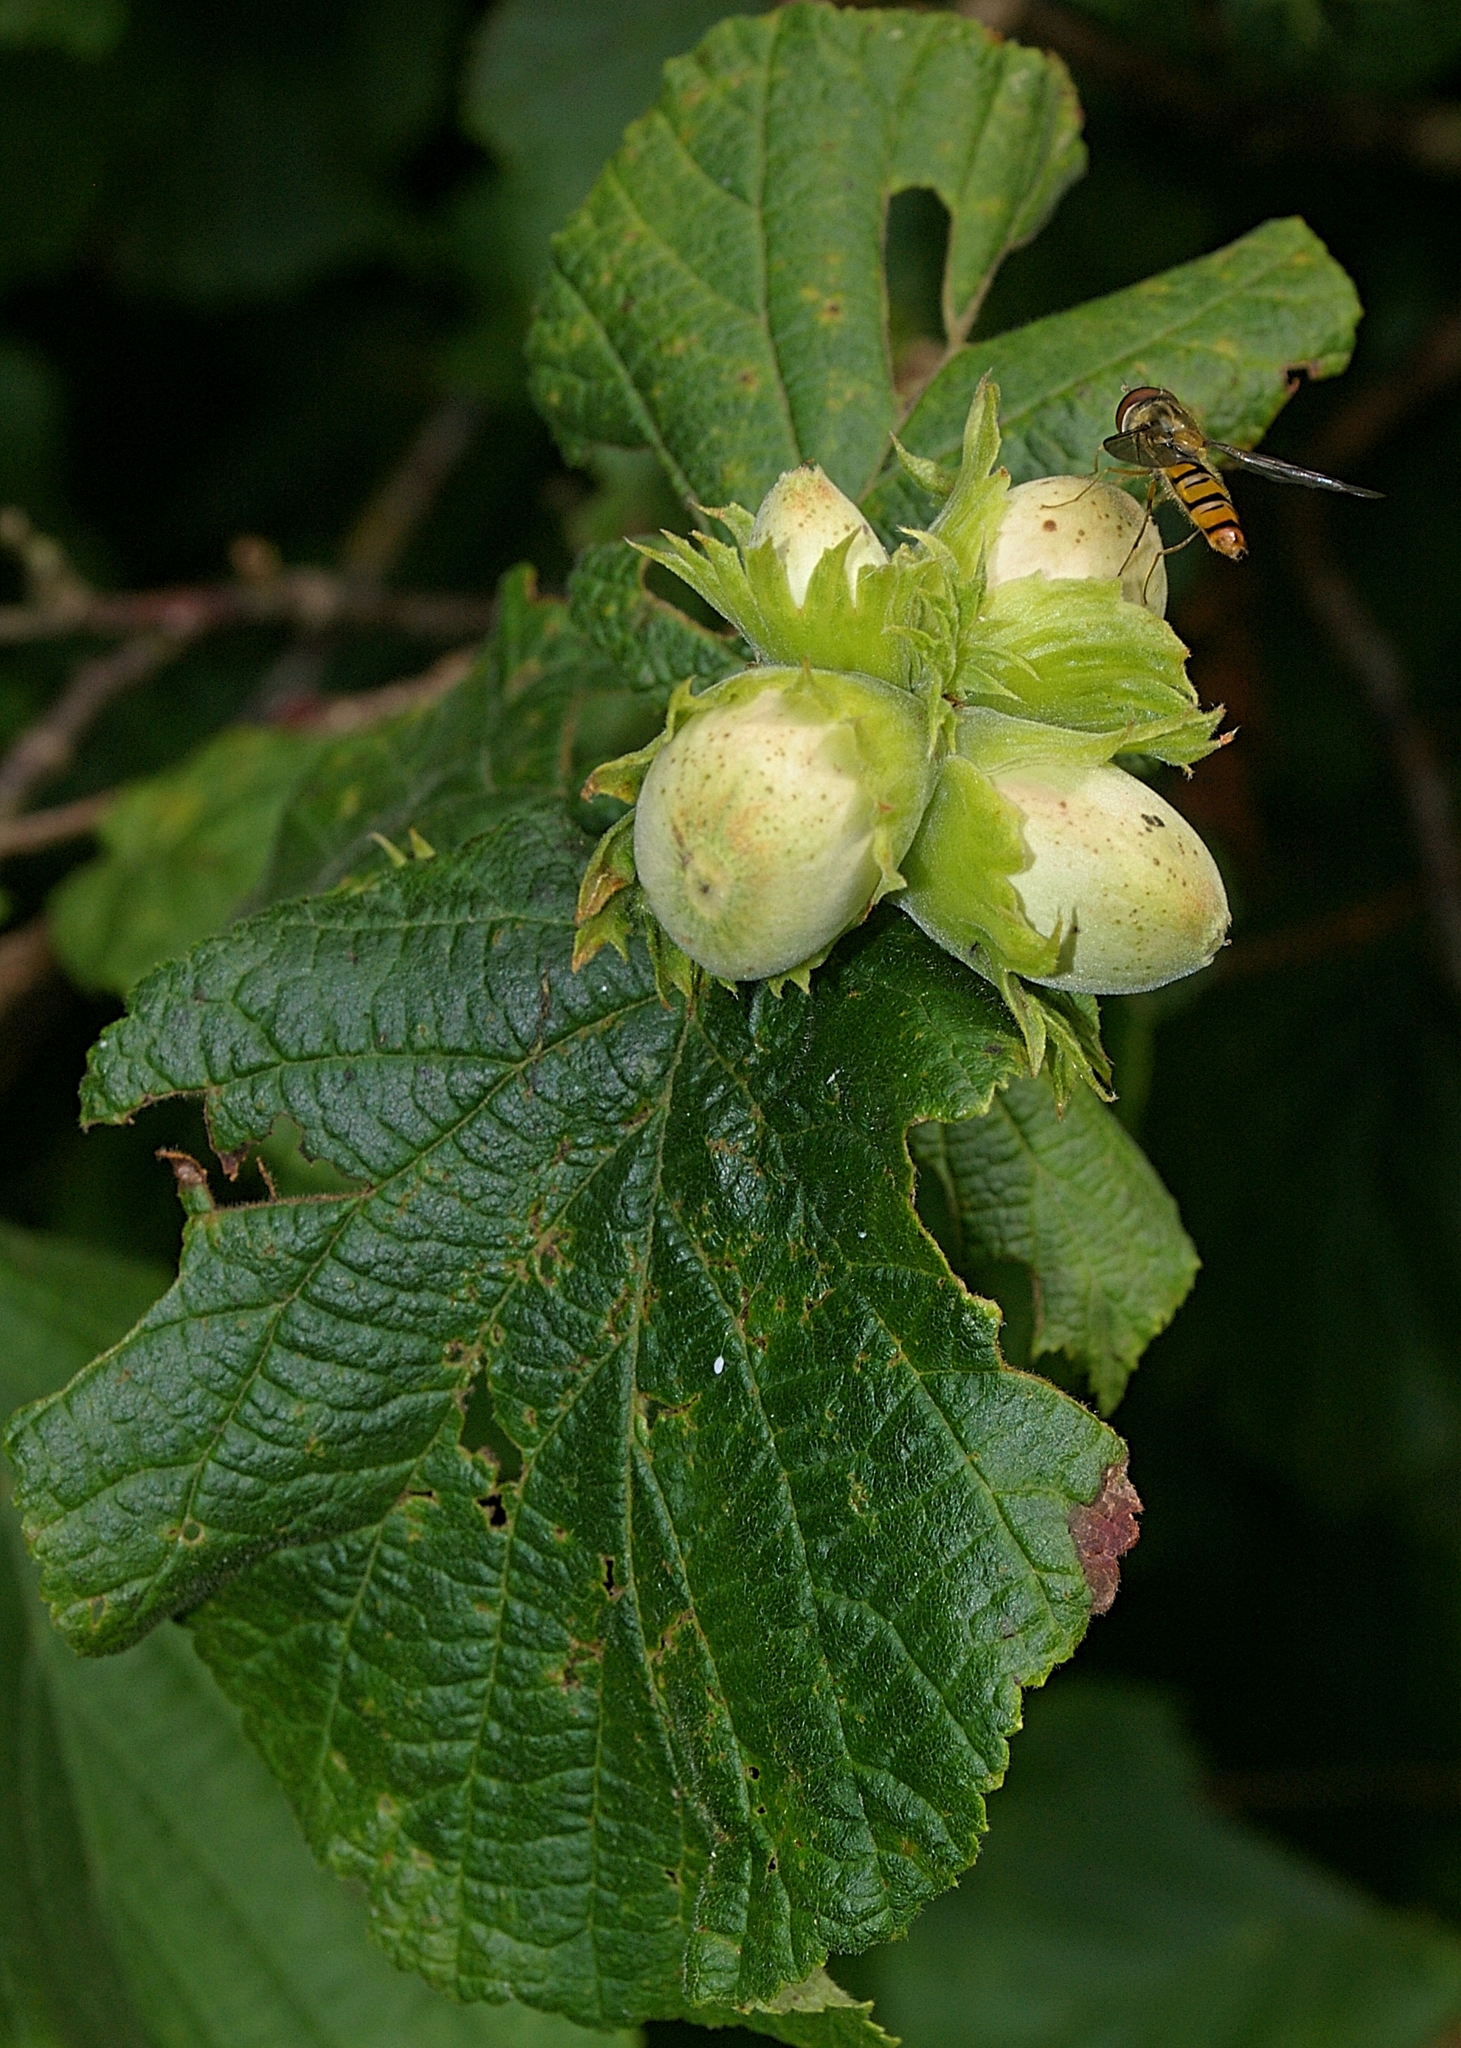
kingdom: Animalia
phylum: Arthropoda
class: Insecta
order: Diptera
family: Syrphidae
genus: Episyrphus
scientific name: Episyrphus balteatus
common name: Marmalade hoverfly
